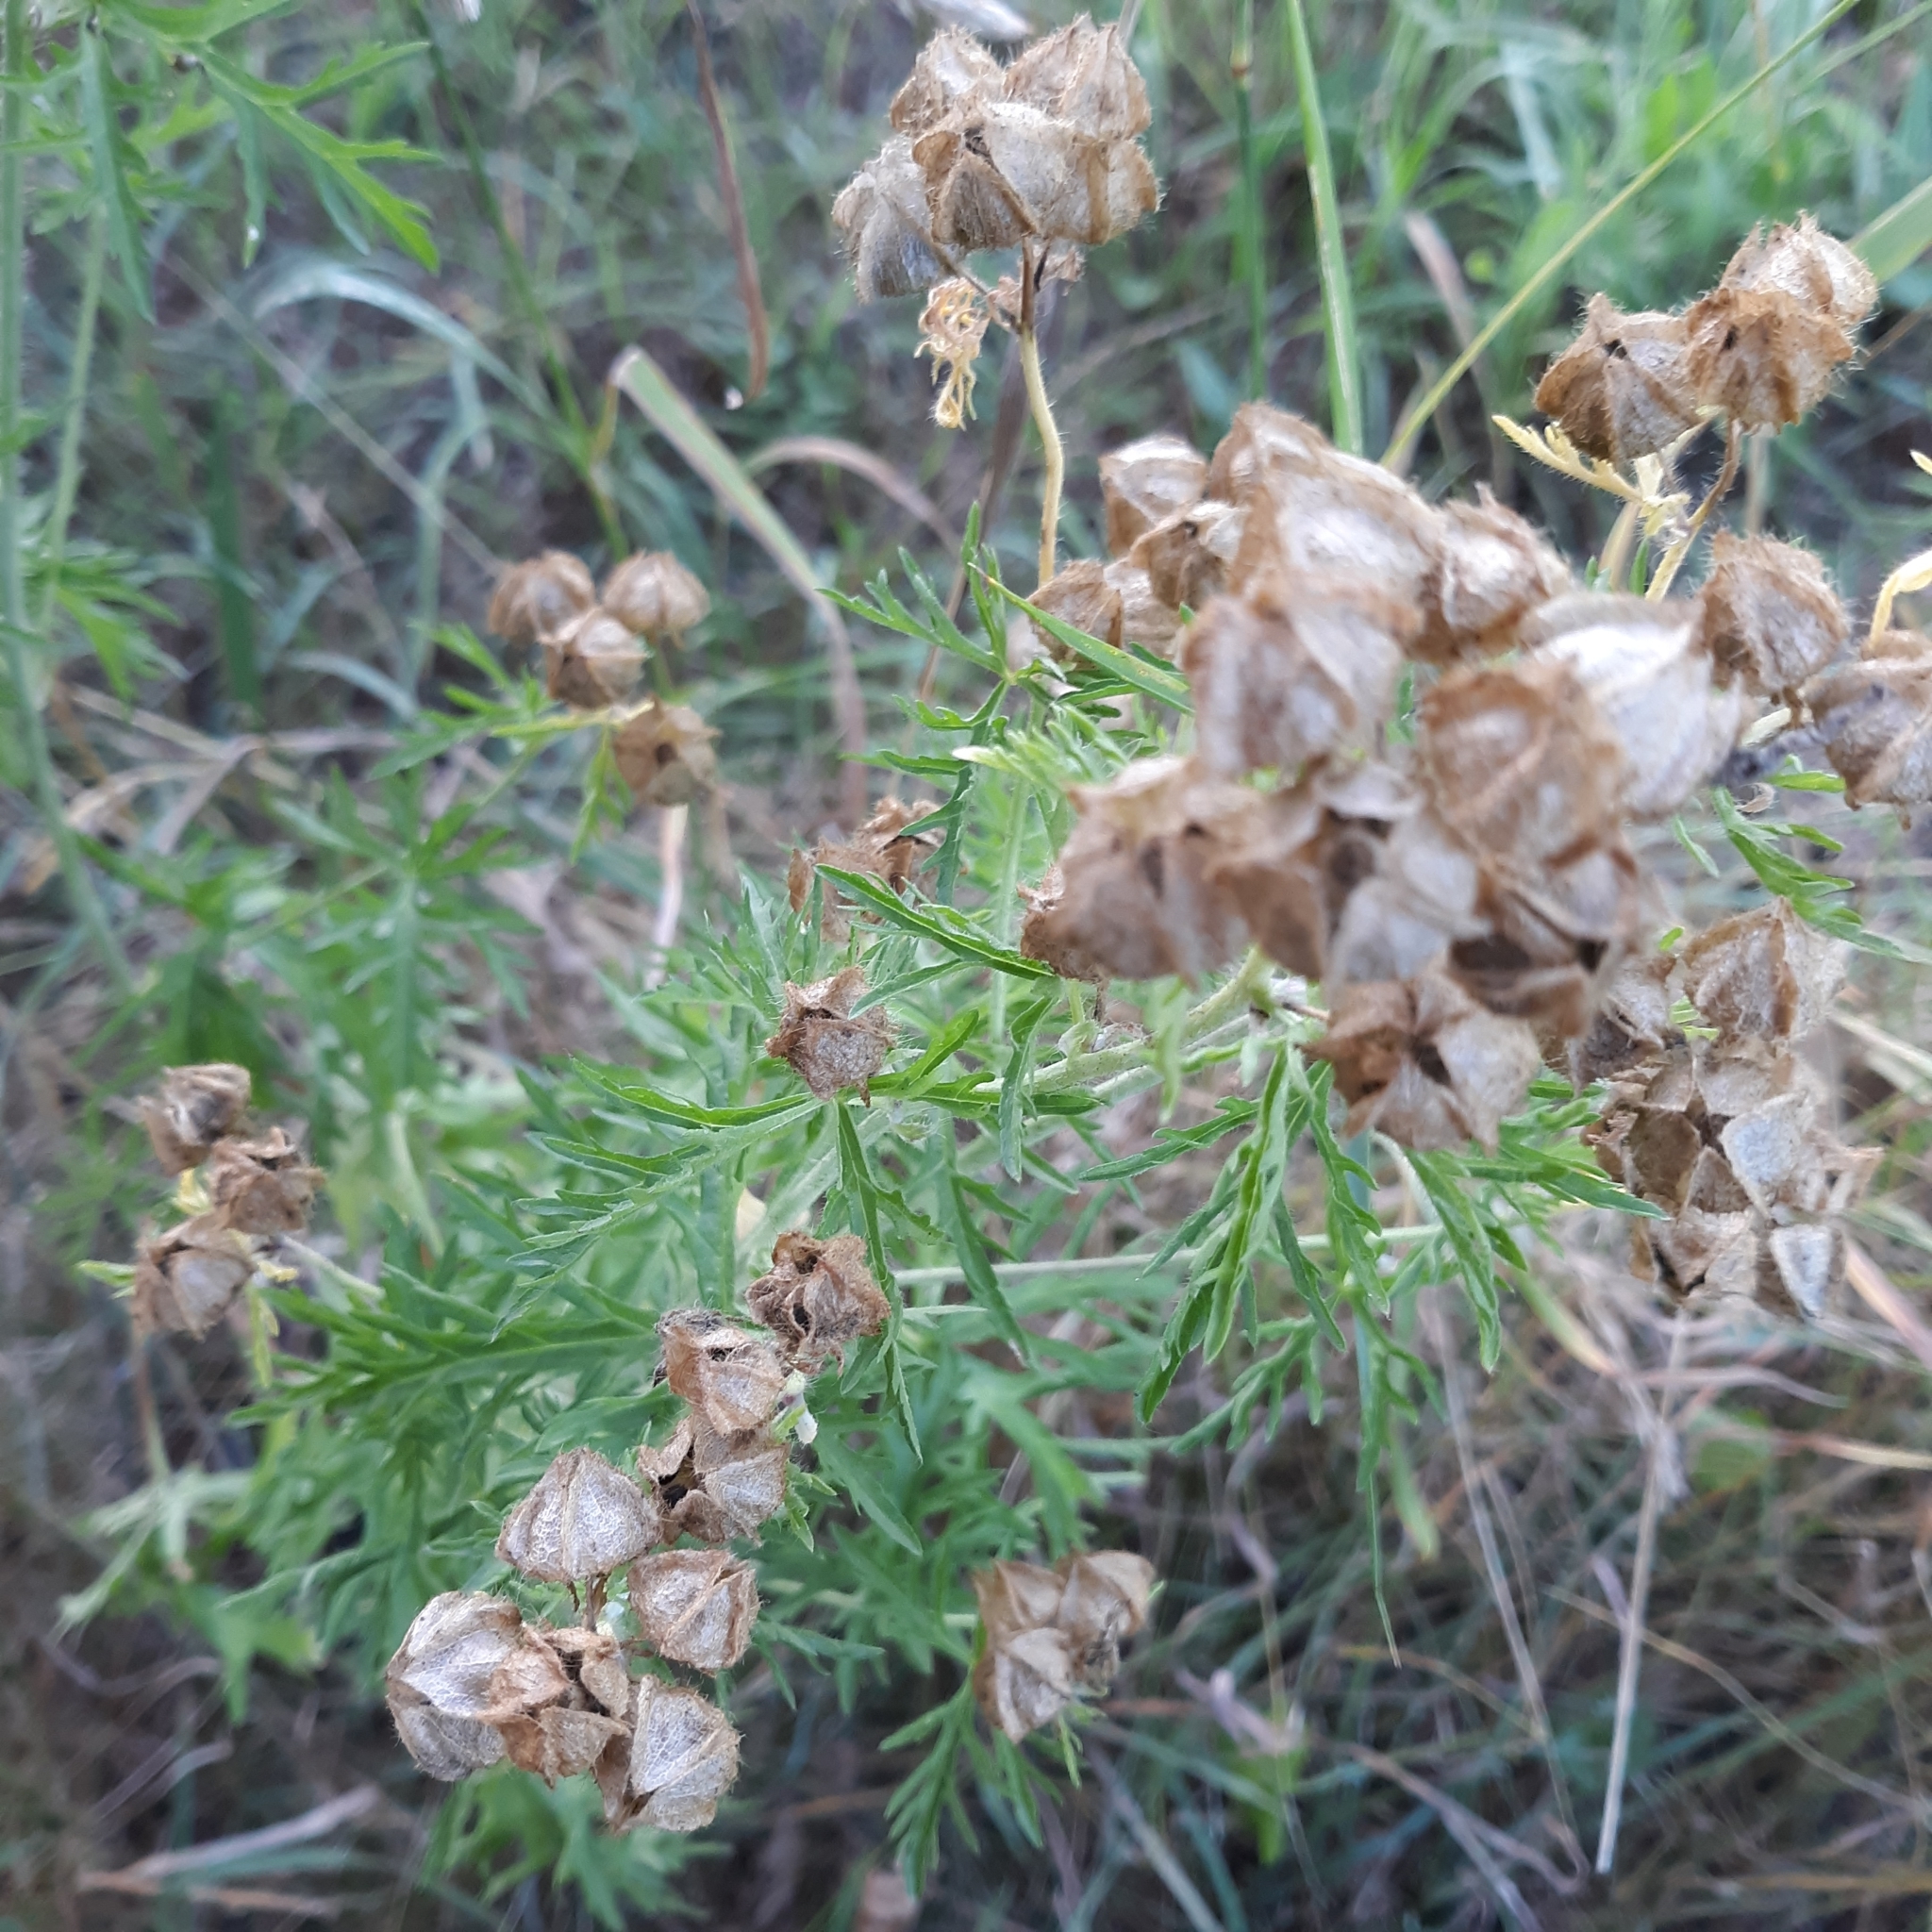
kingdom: Plantae
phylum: Tracheophyta
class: Magnoliopsida
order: Malvales
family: Malvaceae
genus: Malva
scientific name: Malva moschata
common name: Musk mallow
